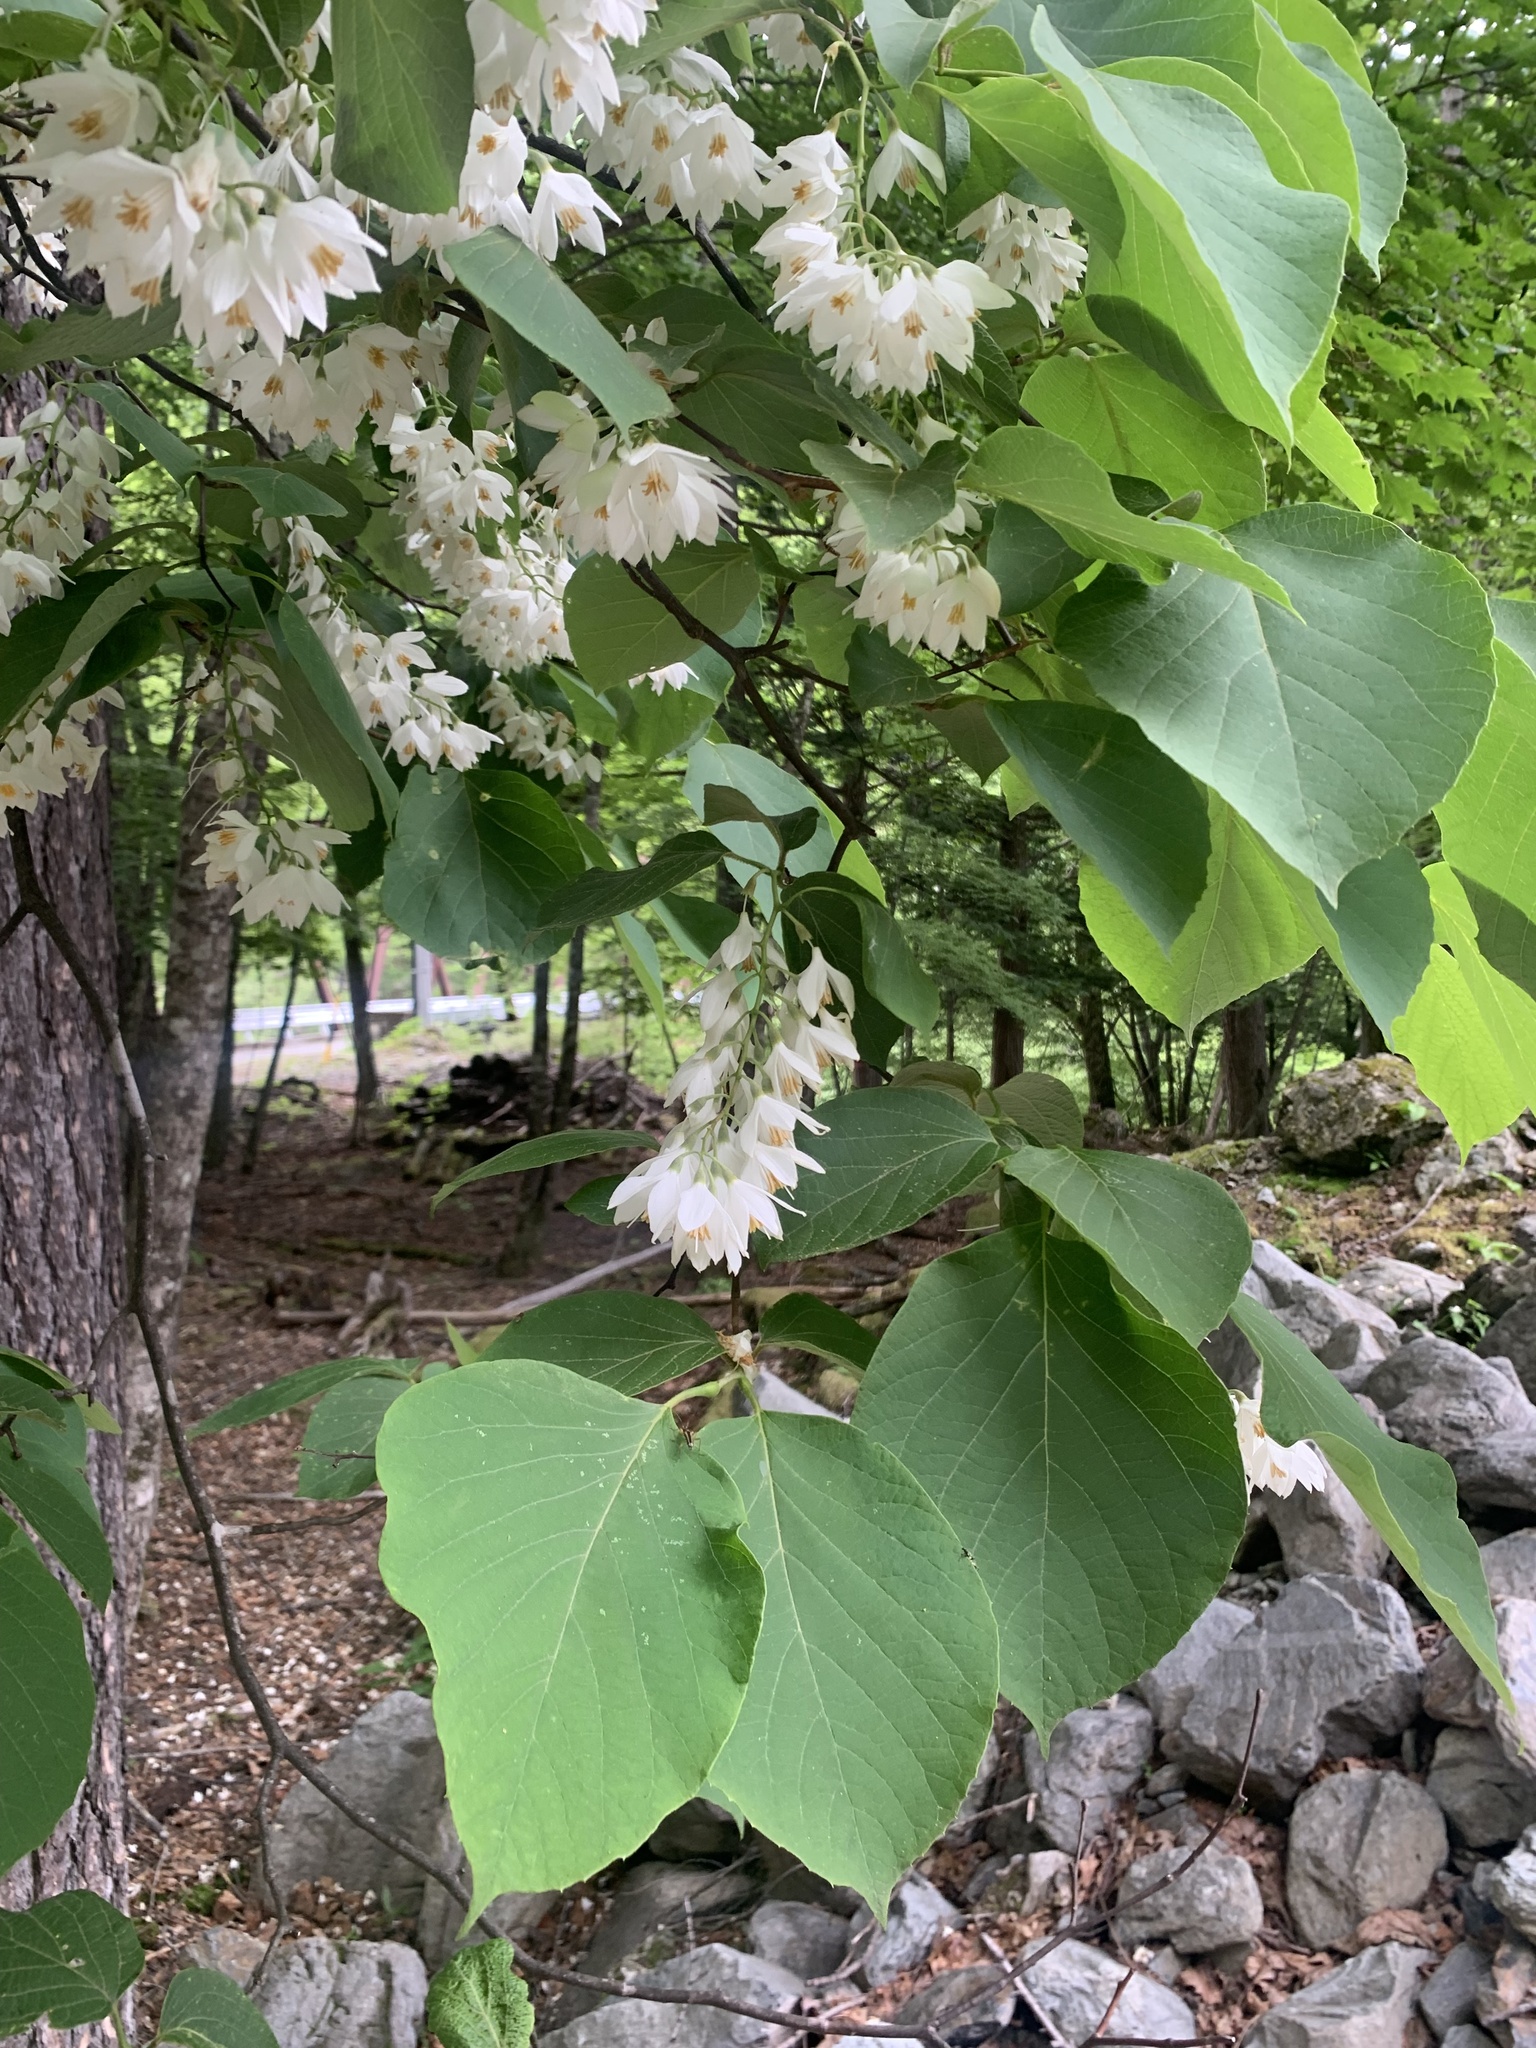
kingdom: Plantae
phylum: Tracheophyta
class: Magnoliopsida
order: Ericales
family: Styracaceae
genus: Styrax
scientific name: Styrax obassia
